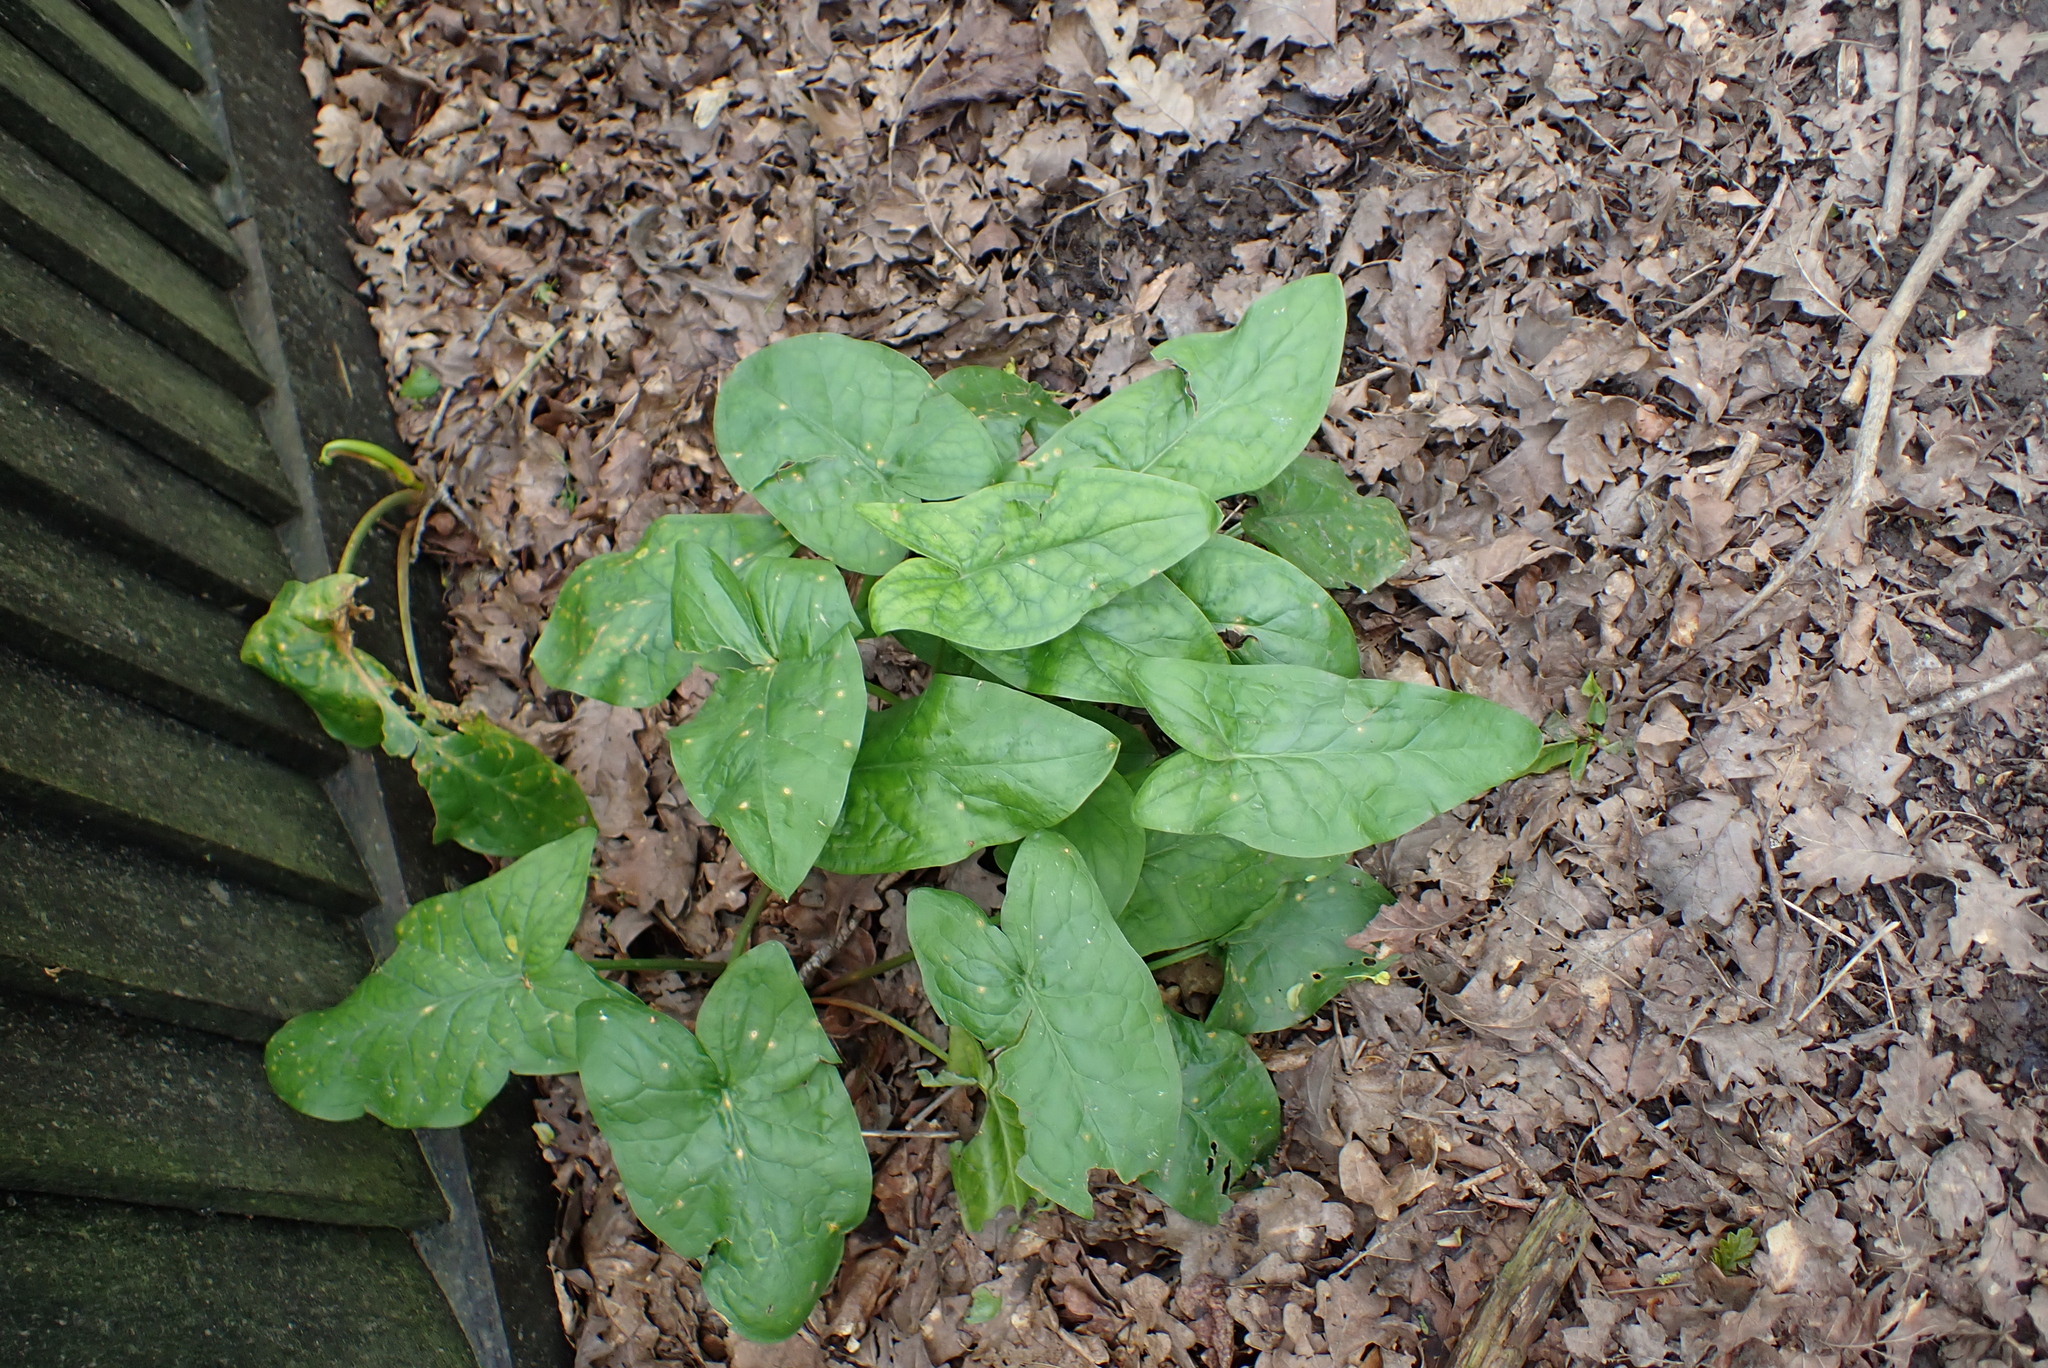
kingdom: Plantae
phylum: Tracheophyta
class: Liliopsida
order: Alismatales
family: Araceae
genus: Arum
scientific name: Arum maculatum
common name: Lords-and-ladies
